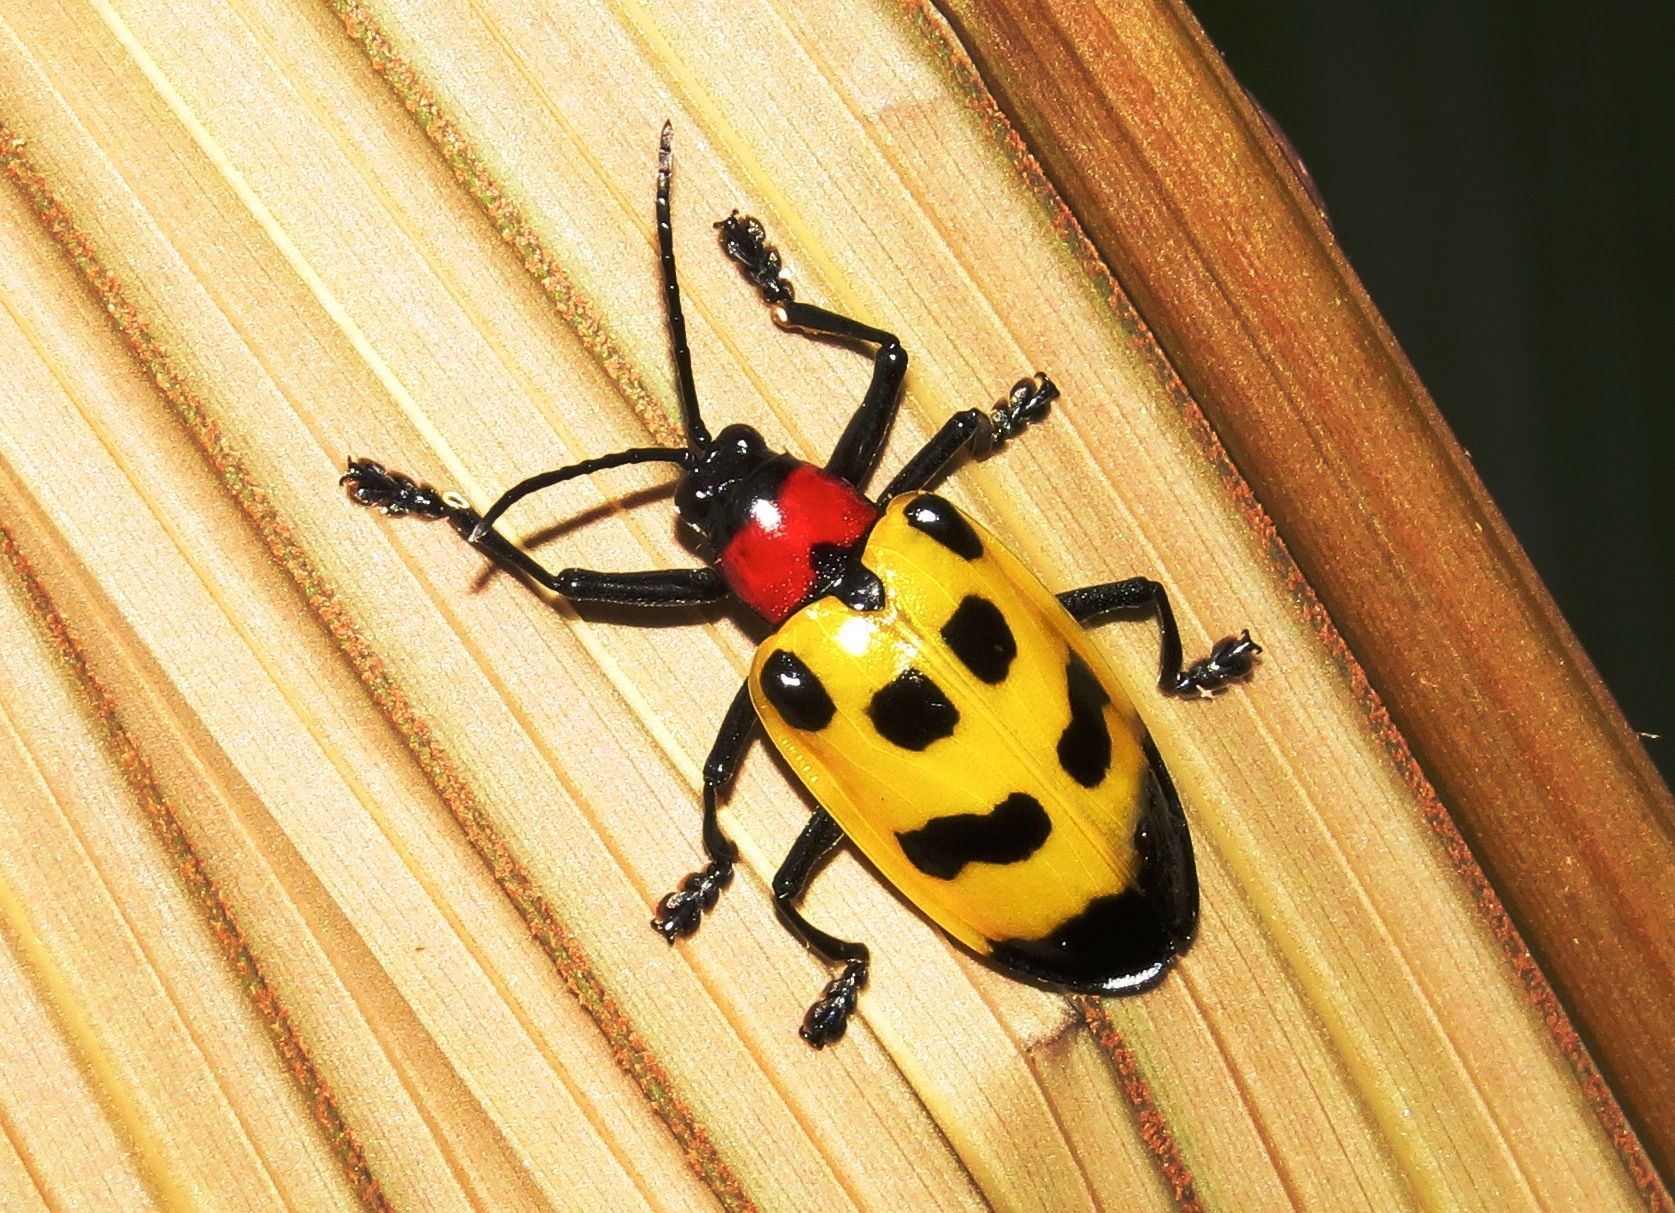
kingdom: Animalia
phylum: Arthropoda
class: Insecta
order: Coleoptera
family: Chrysomelidae
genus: Alurnus
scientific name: Alurnus ornatus
